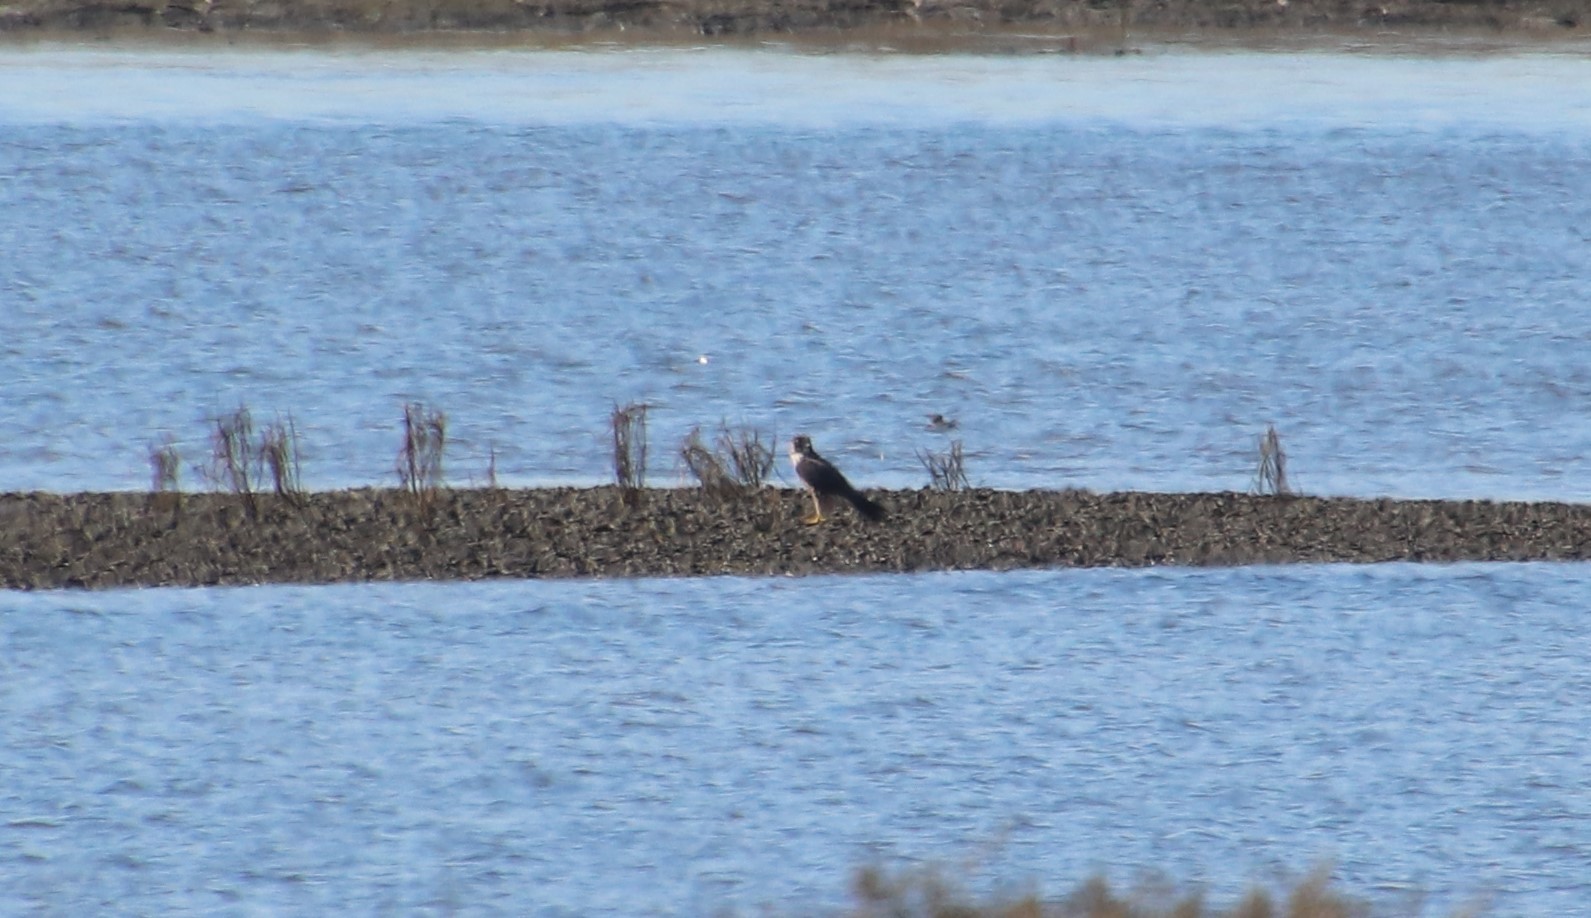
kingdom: Animalia
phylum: Chordata
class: Aves
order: Falconiformes
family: Falconidae
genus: Falco
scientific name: Falco peregrinus
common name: Peregrine falcon
